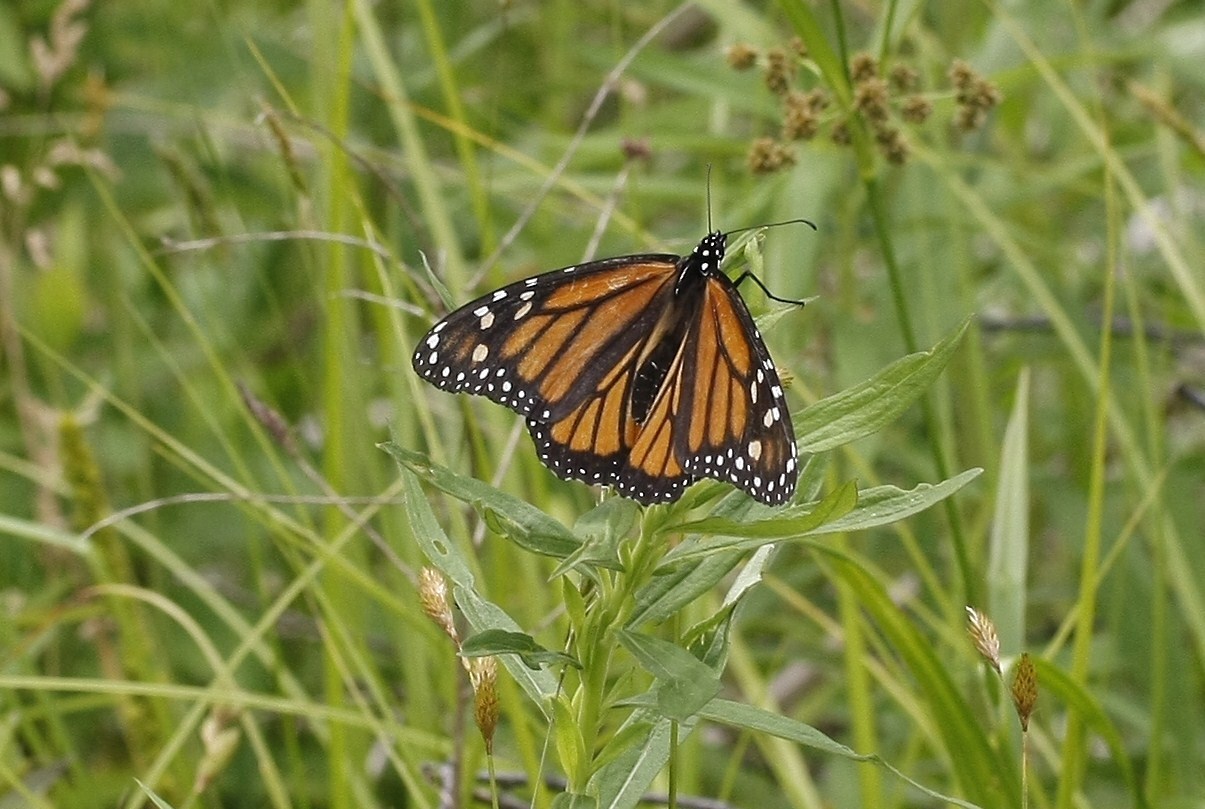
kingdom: Animalia
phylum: Arthropoda
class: Insecta
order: Lepidoptera
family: Nymphalidae
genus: Danaus
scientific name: Danaus plexippus
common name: Monarch
